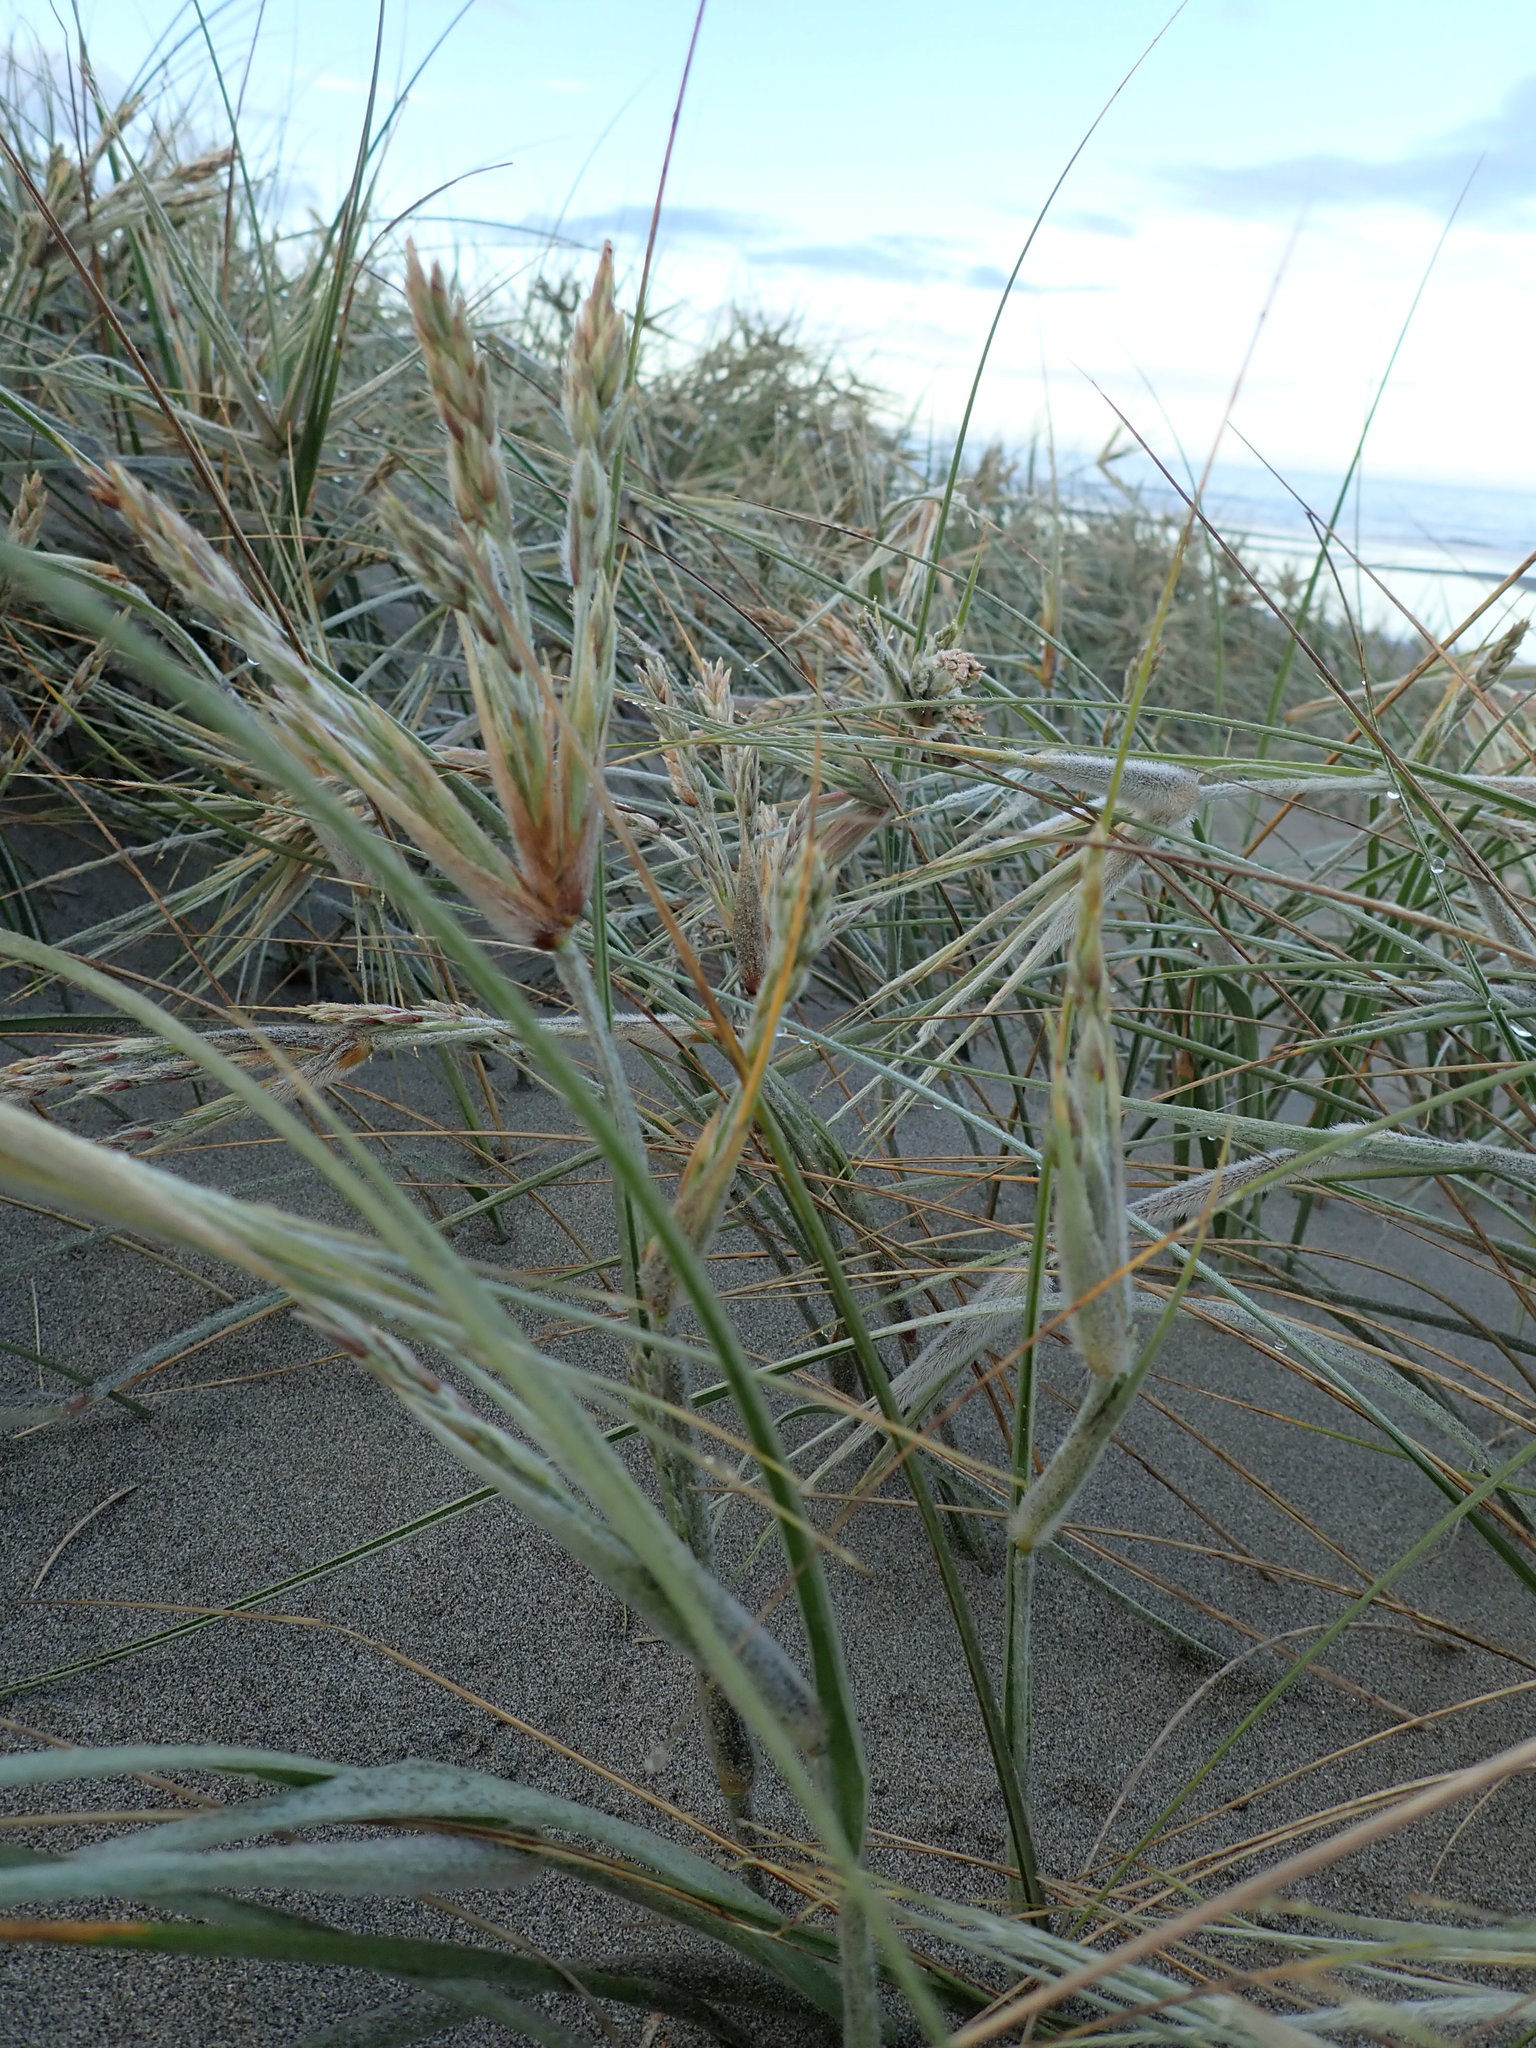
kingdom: Plantae
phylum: Tracheophyta
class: Liliopsida
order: Poales
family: Poaceae
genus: Spinifex
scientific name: Spinifex sericeus
